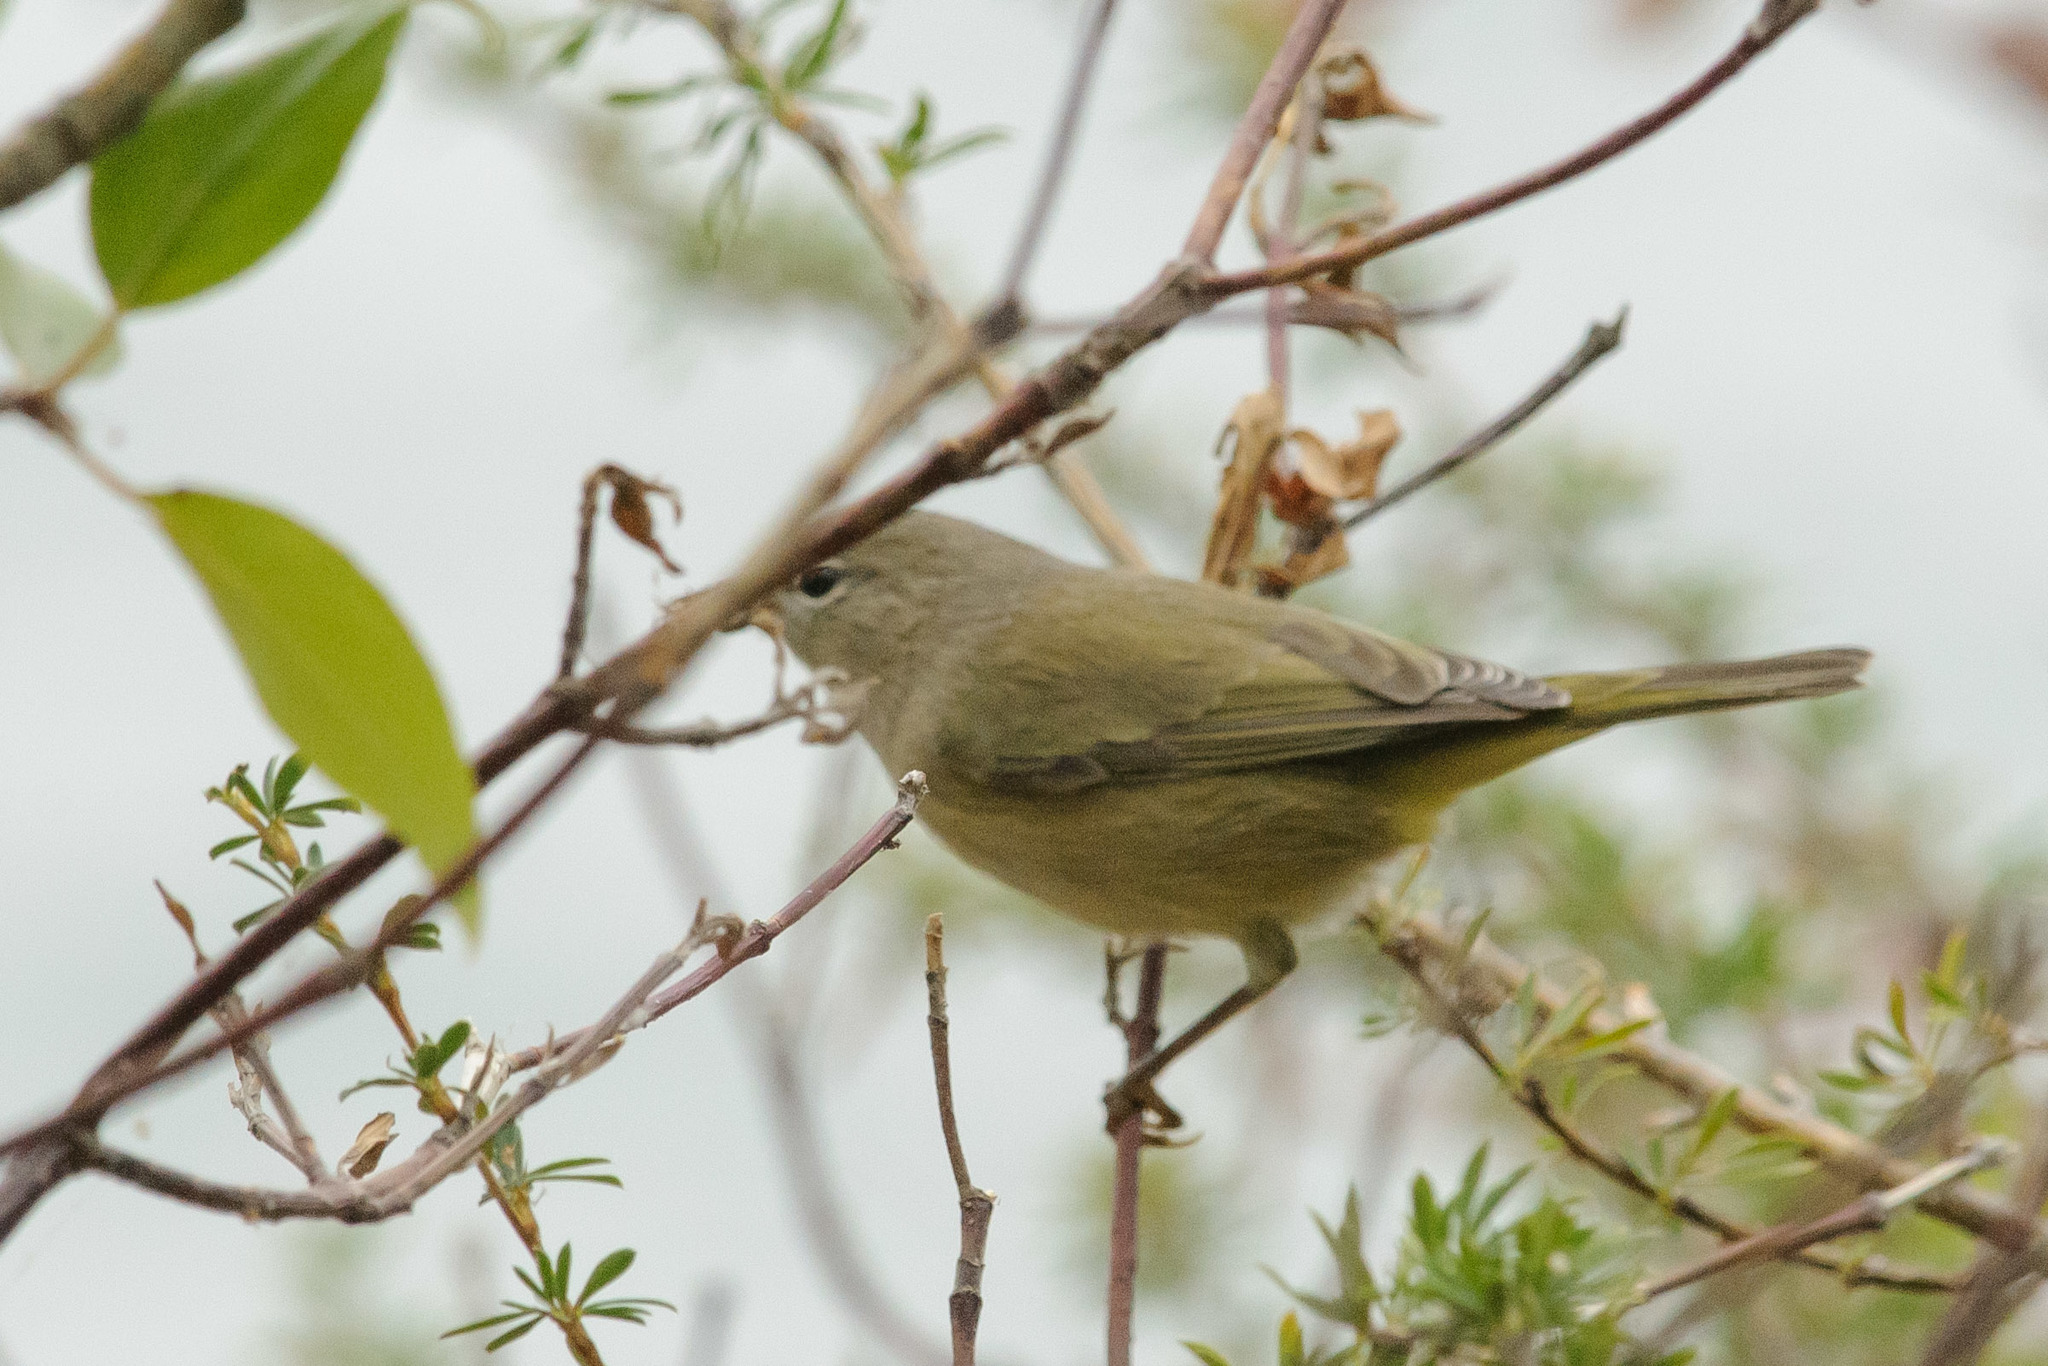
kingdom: Animalia
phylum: Chordata
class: Aves
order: Passeriformes
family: Parulidae
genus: Leiothlypis
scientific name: Leiothlypis celata
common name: Orange-crowned warbler
